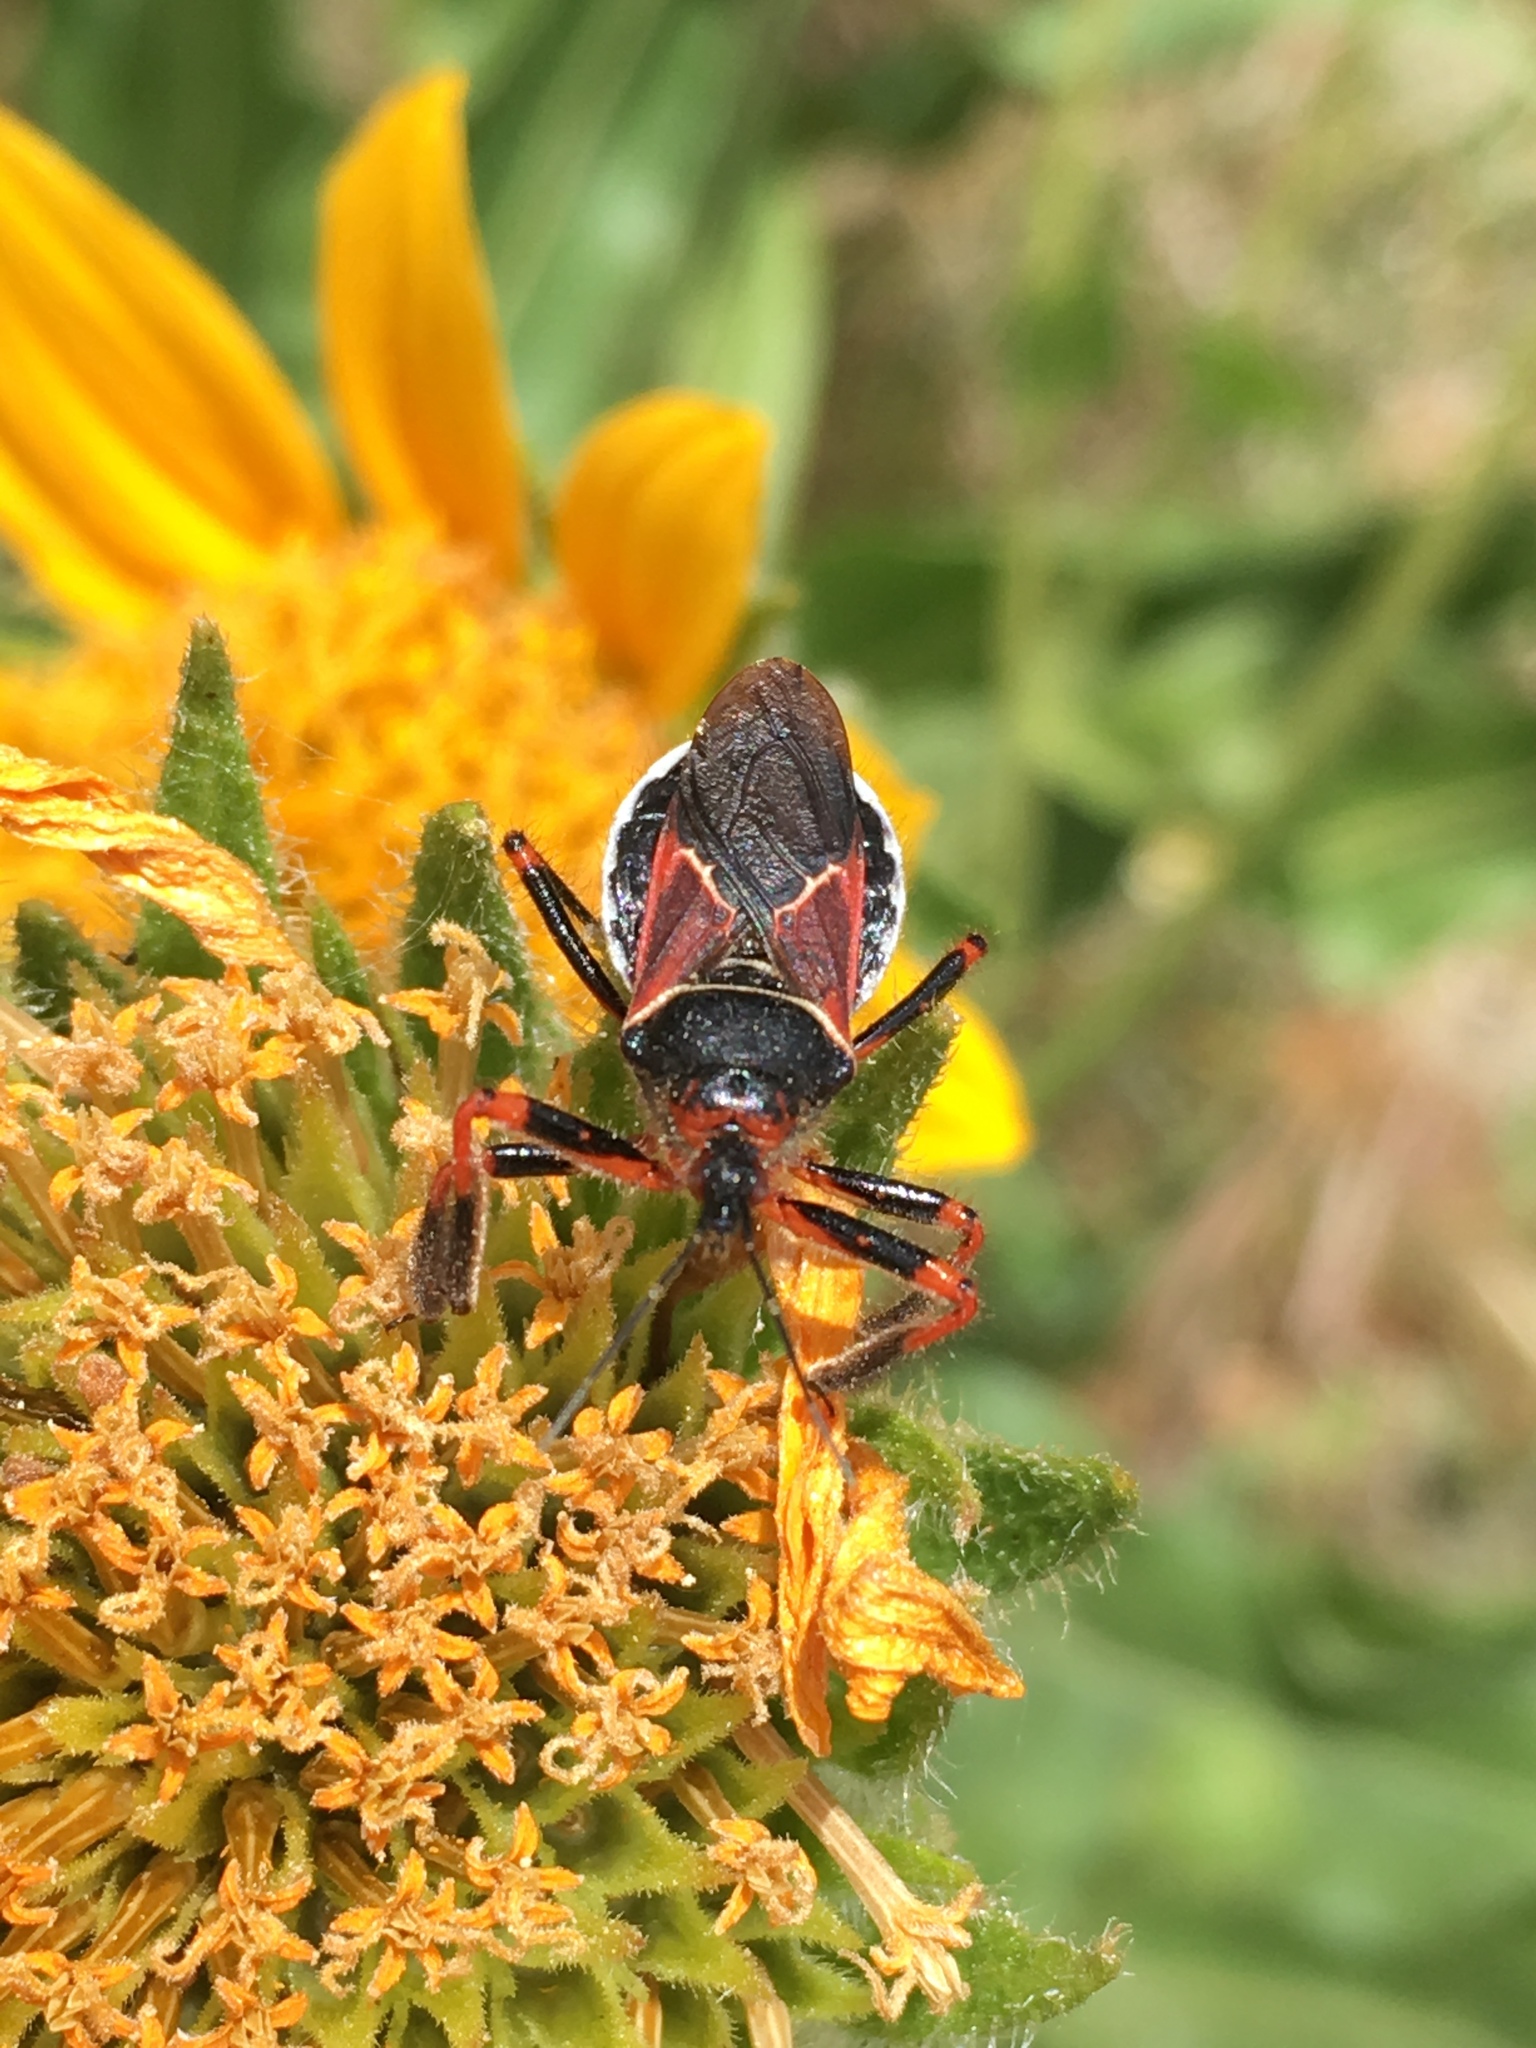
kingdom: Animalia
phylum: Arthropoda
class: Insecta
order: Hemiptera
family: Reduviidae
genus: Apiomerus
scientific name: Apiomerus californicus
